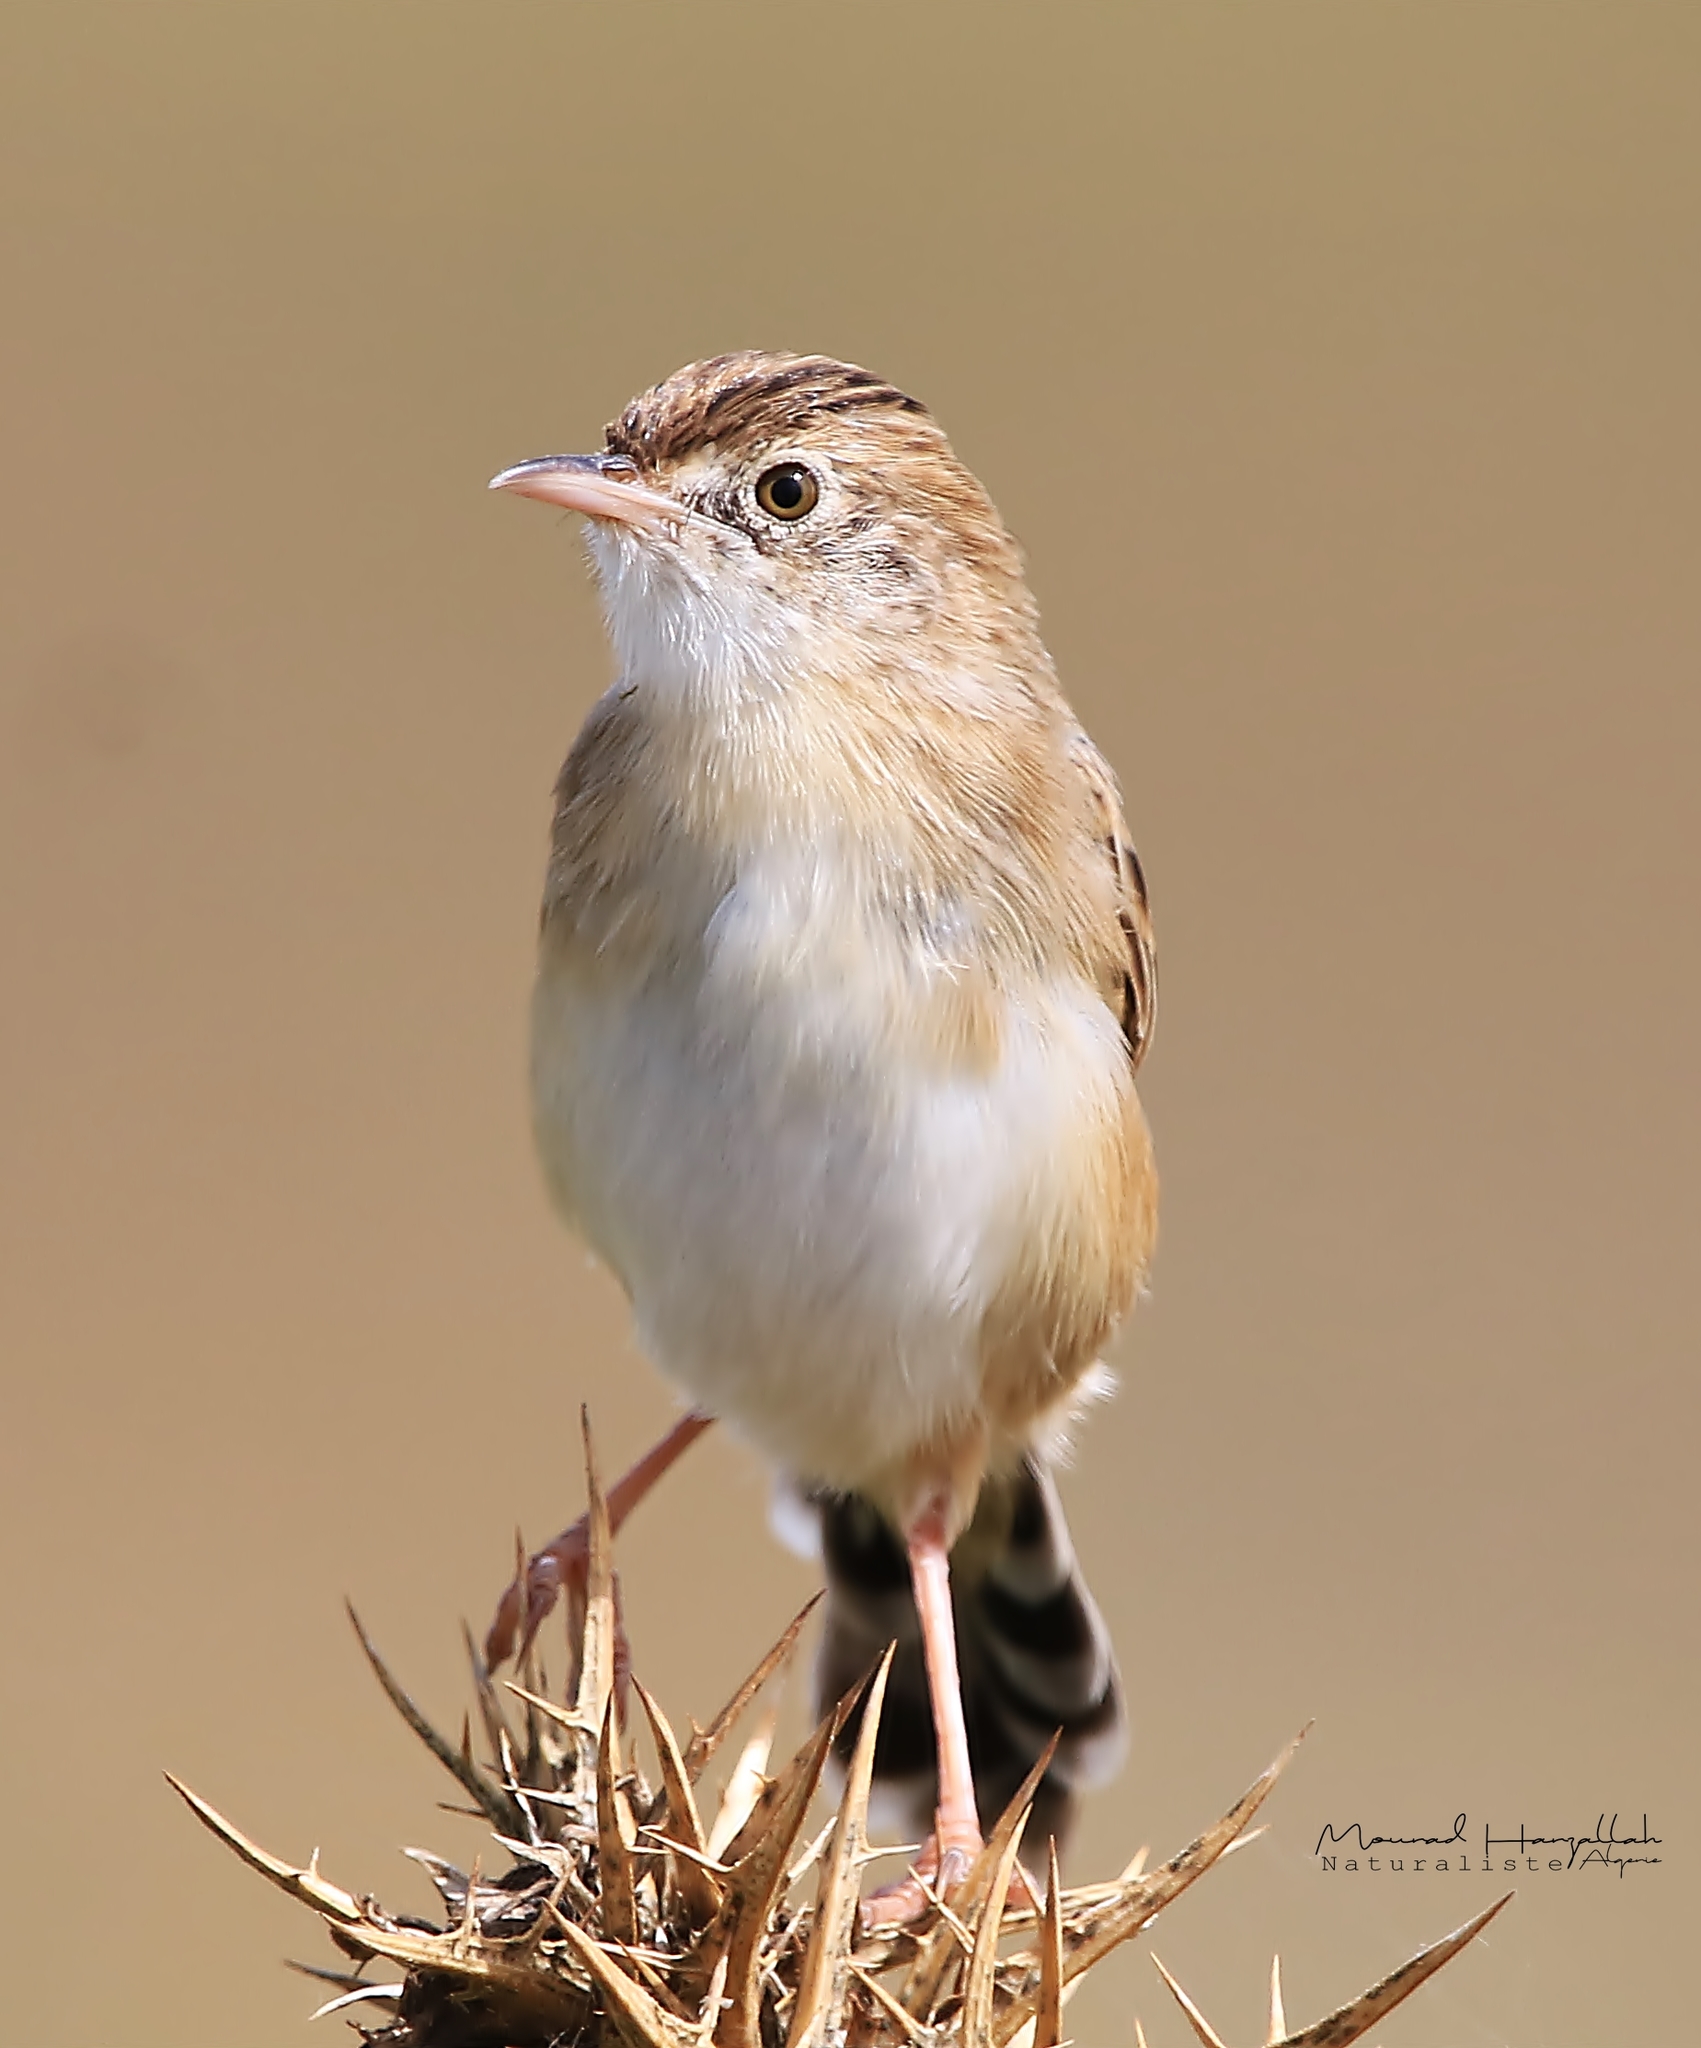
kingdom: Animalia
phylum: Chordata
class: Aves
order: Passeriformes
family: Cisticolidae
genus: Cisticola
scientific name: Cisticola juncidis
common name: Zitting cisticola
